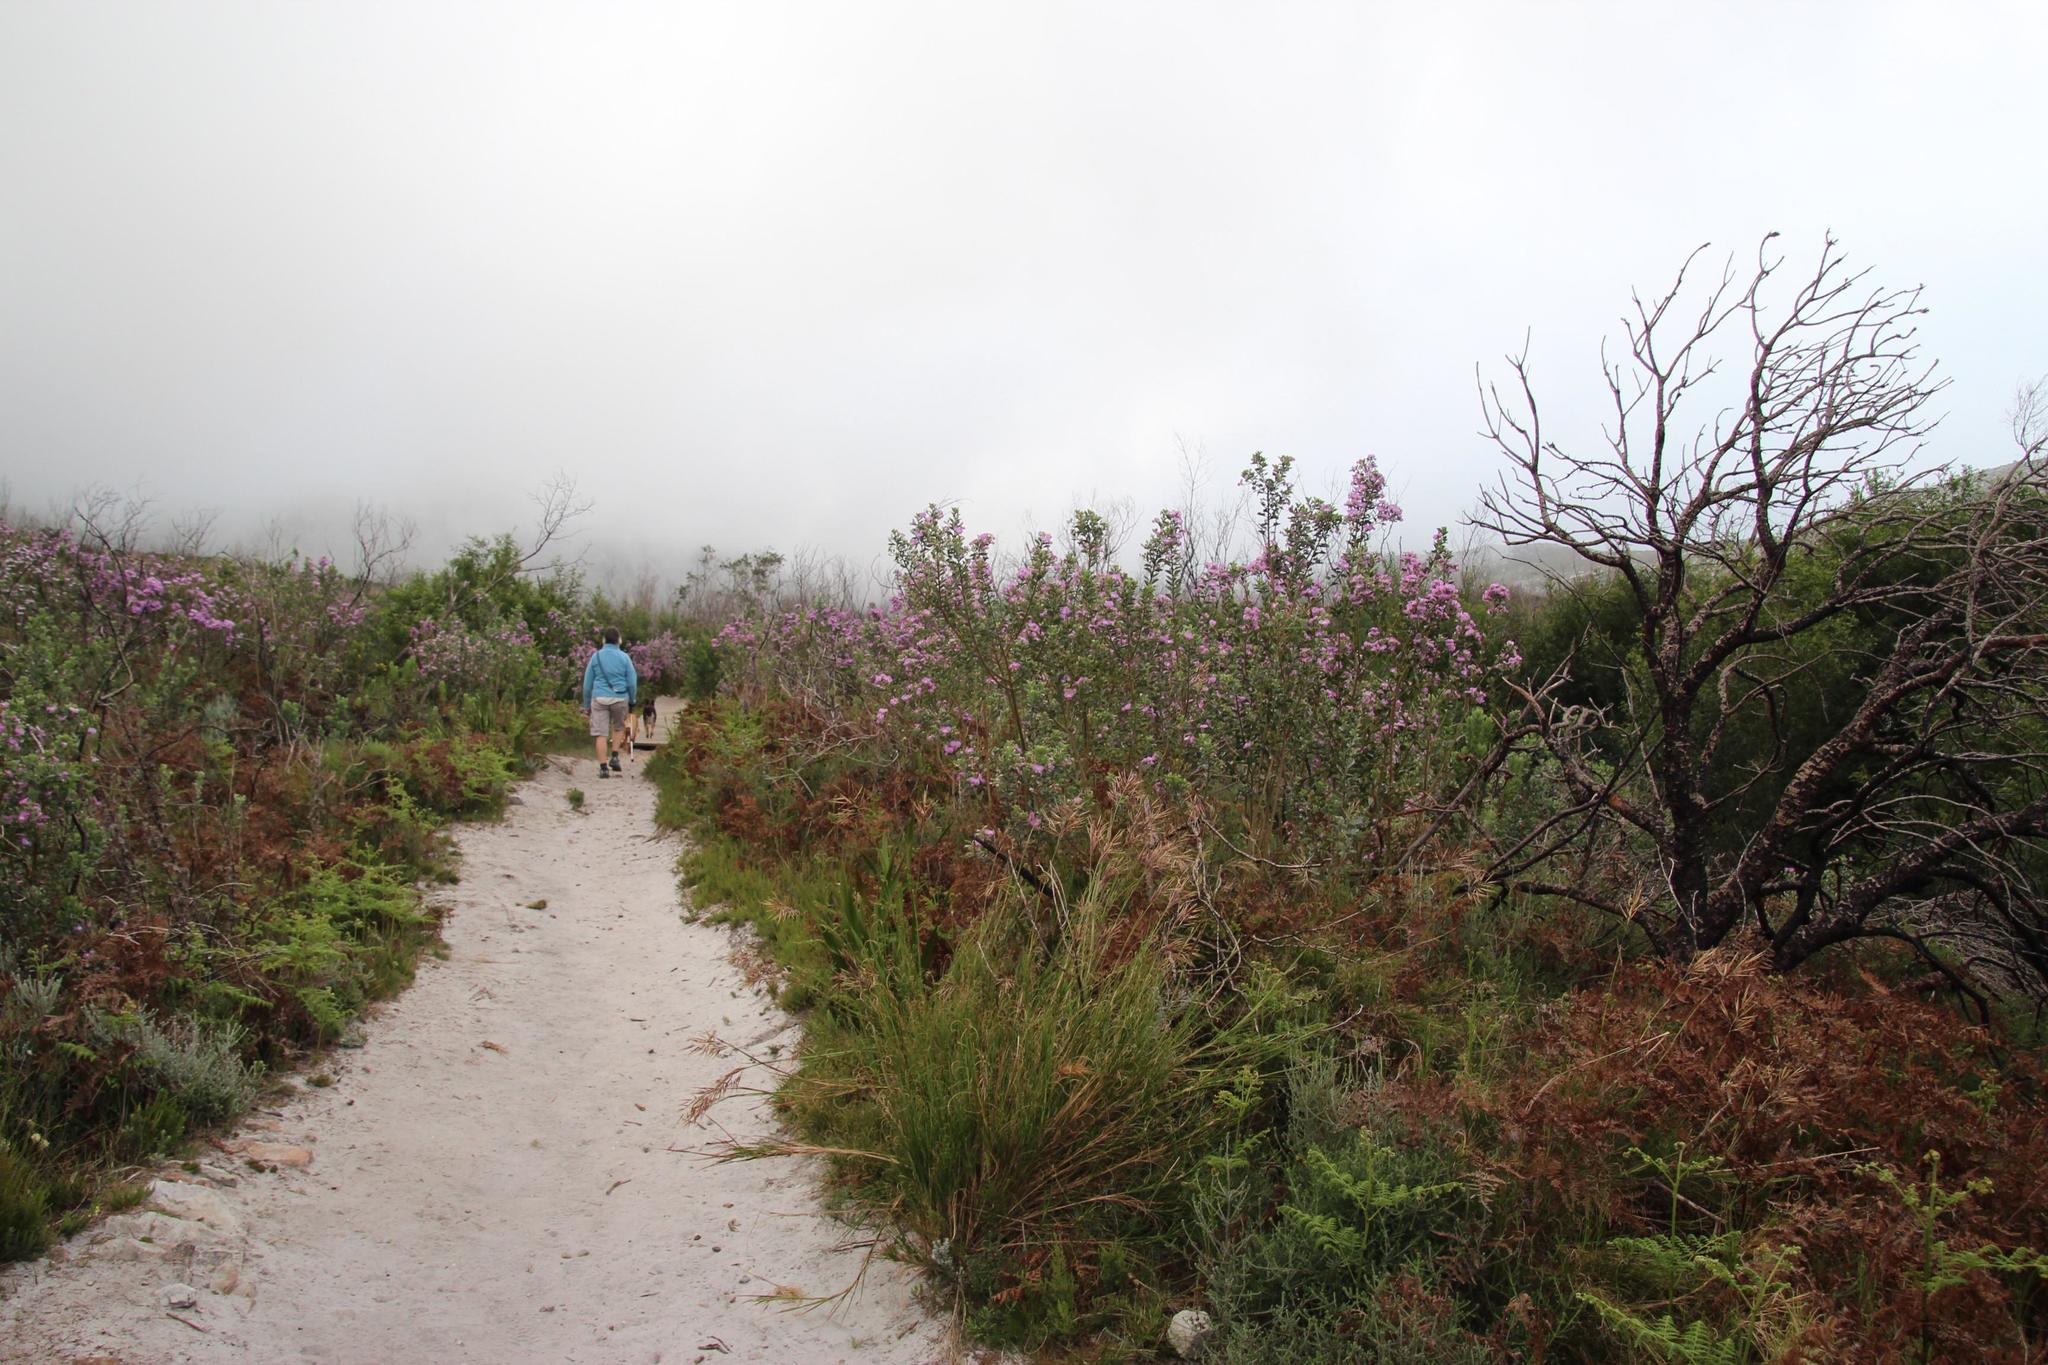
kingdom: Plantae
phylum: Tracheophyta
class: Magnoliopsida
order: Fabales
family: Fabaceae
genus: Podalyria
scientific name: Podalyria calyptrata
